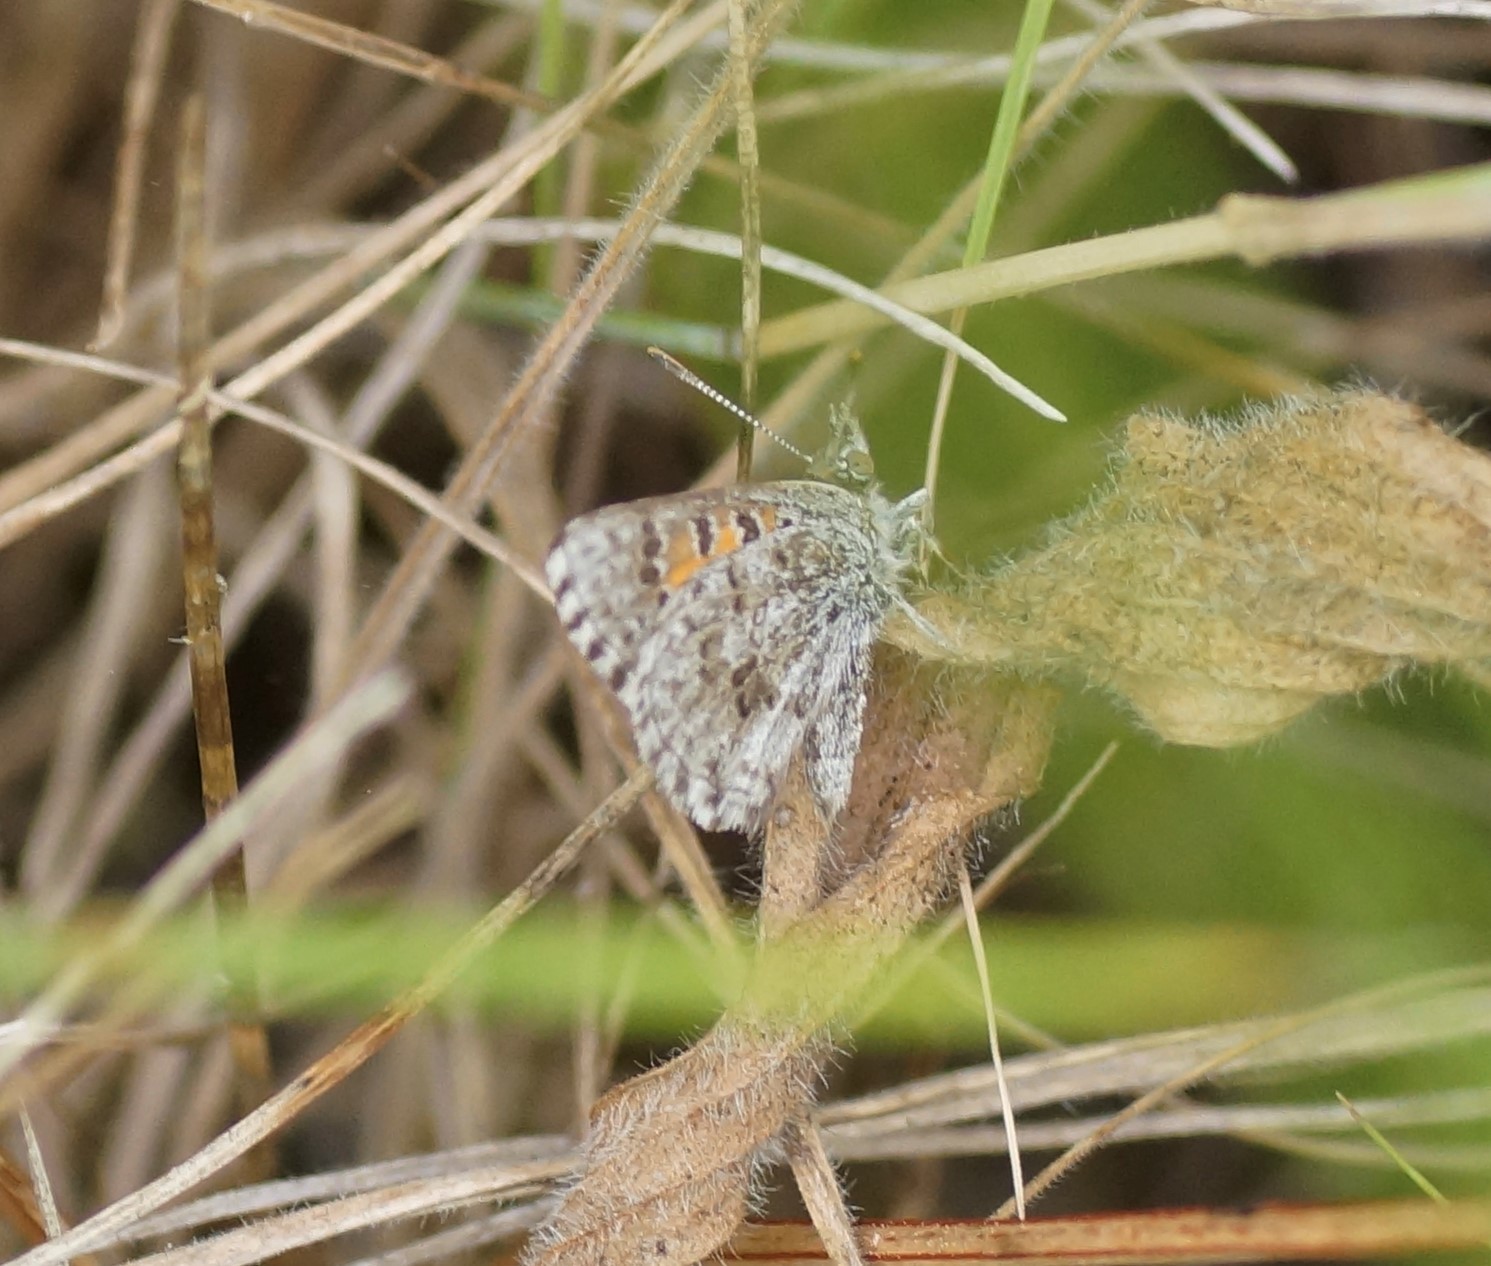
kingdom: Animalia
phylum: Arthropoda
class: Insecta
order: Lepidoptera
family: Lycaenidae
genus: Lucia
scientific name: Lucia limbaria
